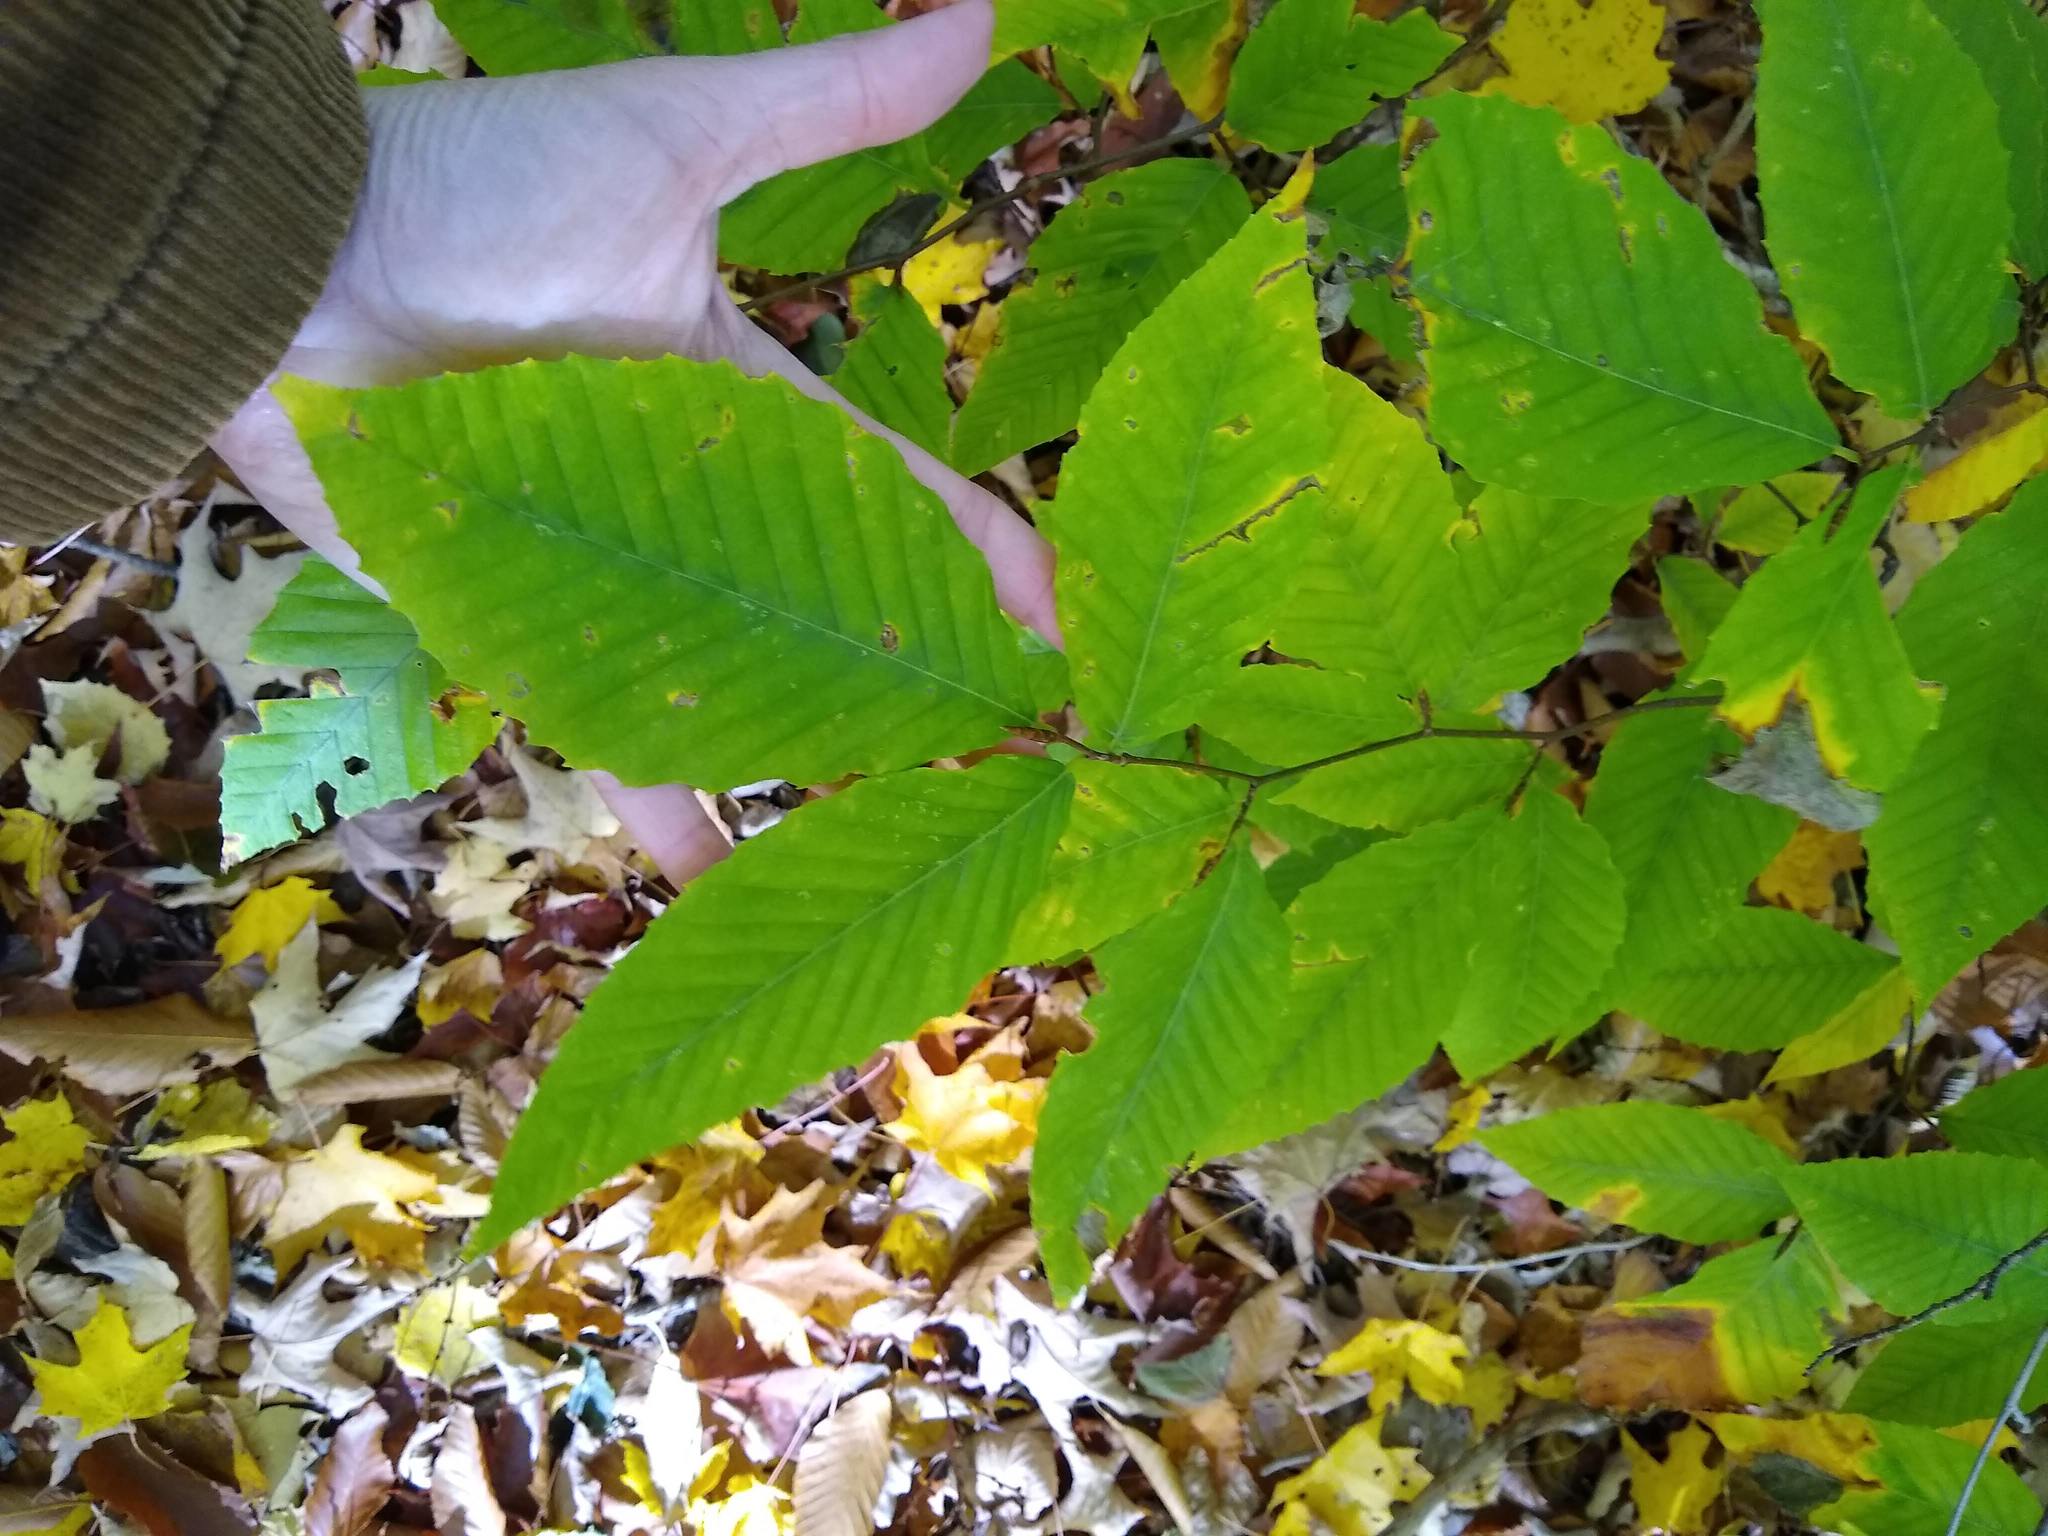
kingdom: Plantae
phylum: Tracheophyta
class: Magnoliopsida
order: Fagales
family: Fagaceae
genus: Fagus
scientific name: Fagus grandifolia
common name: American beech
